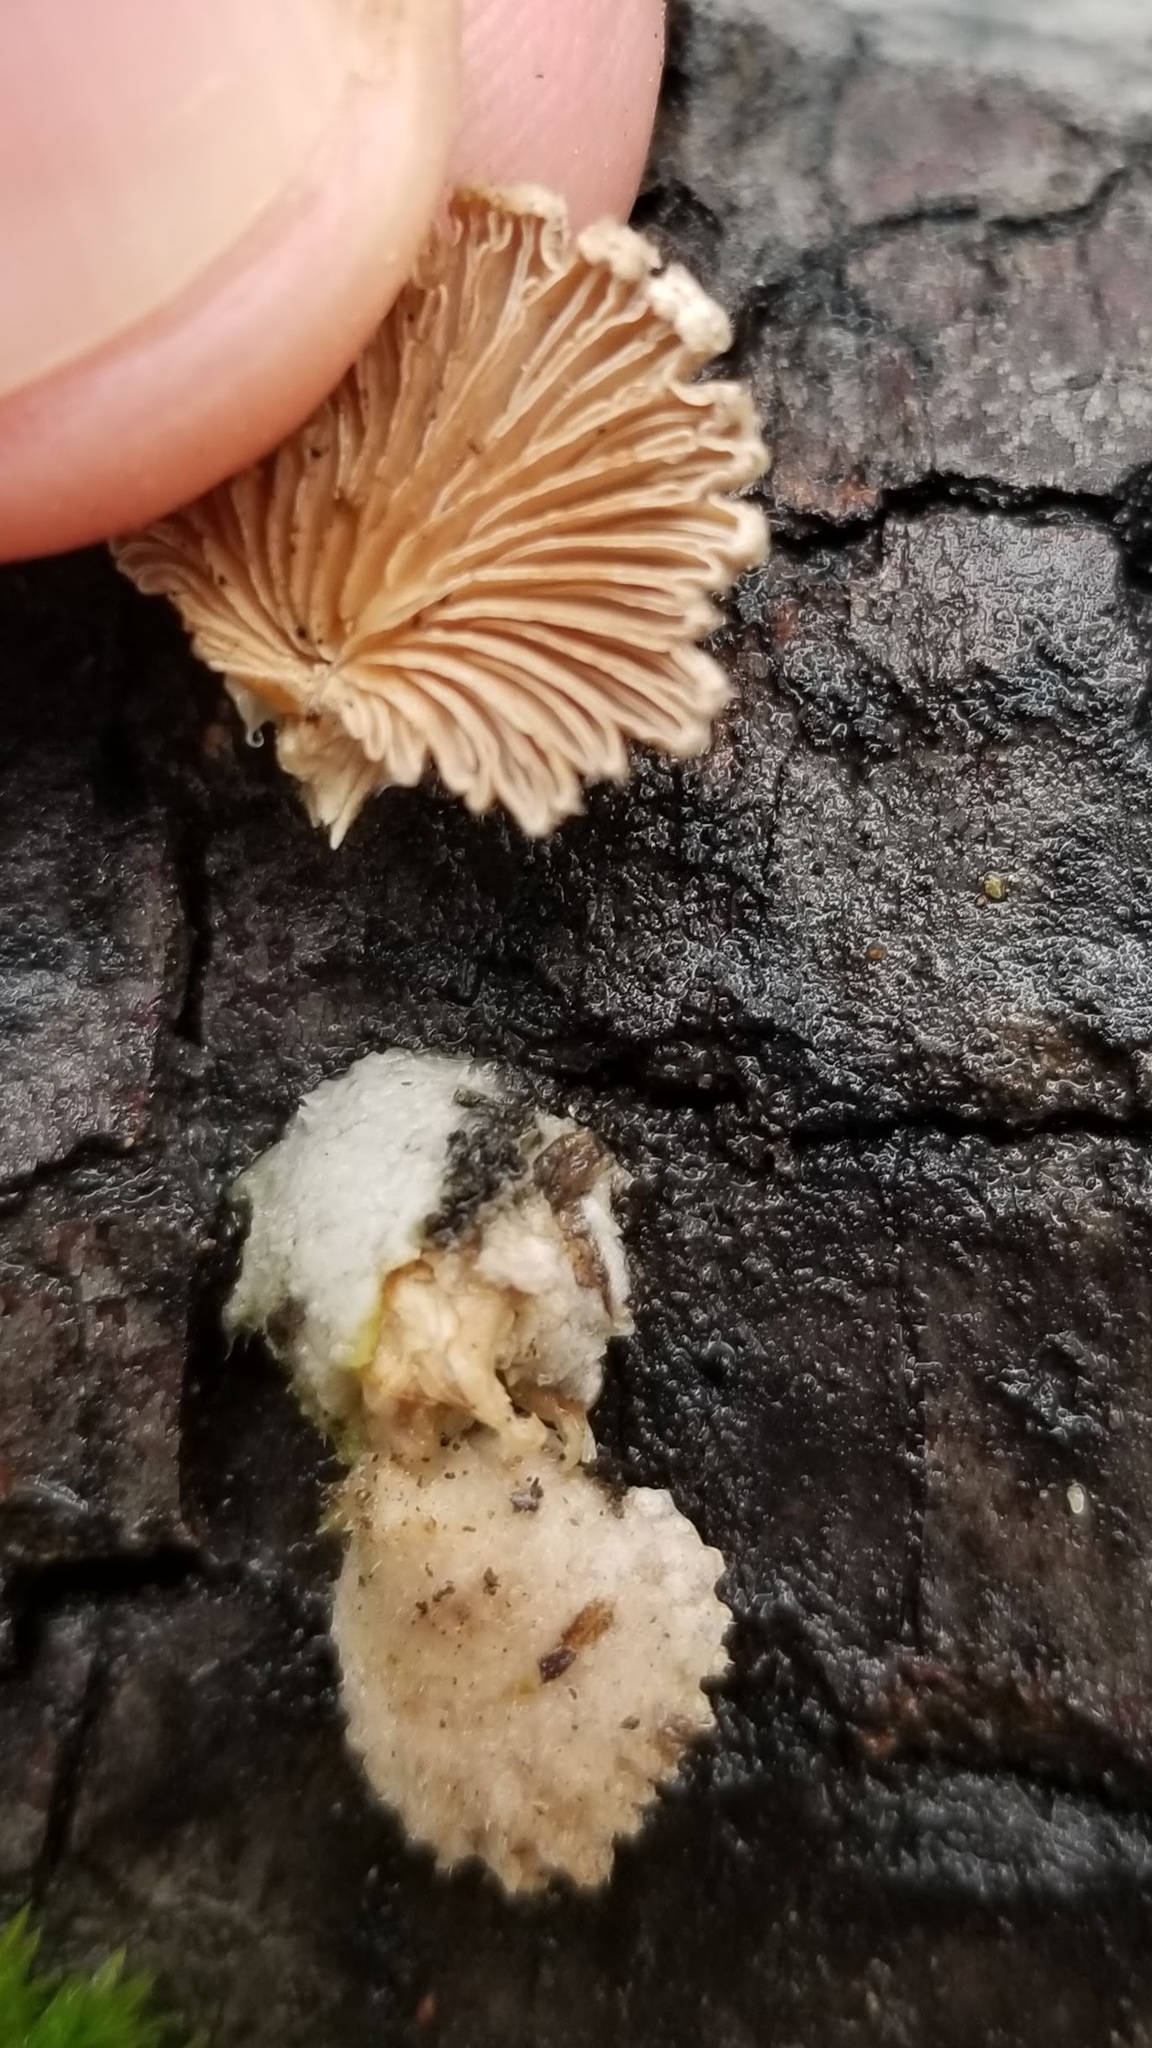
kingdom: Fungi
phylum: Basidiomycota
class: Agaricomycetes
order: Agaricales
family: Schizophyllaceae
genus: Schizophyllum
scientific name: Schizophyllum commune
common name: Common porecrust
